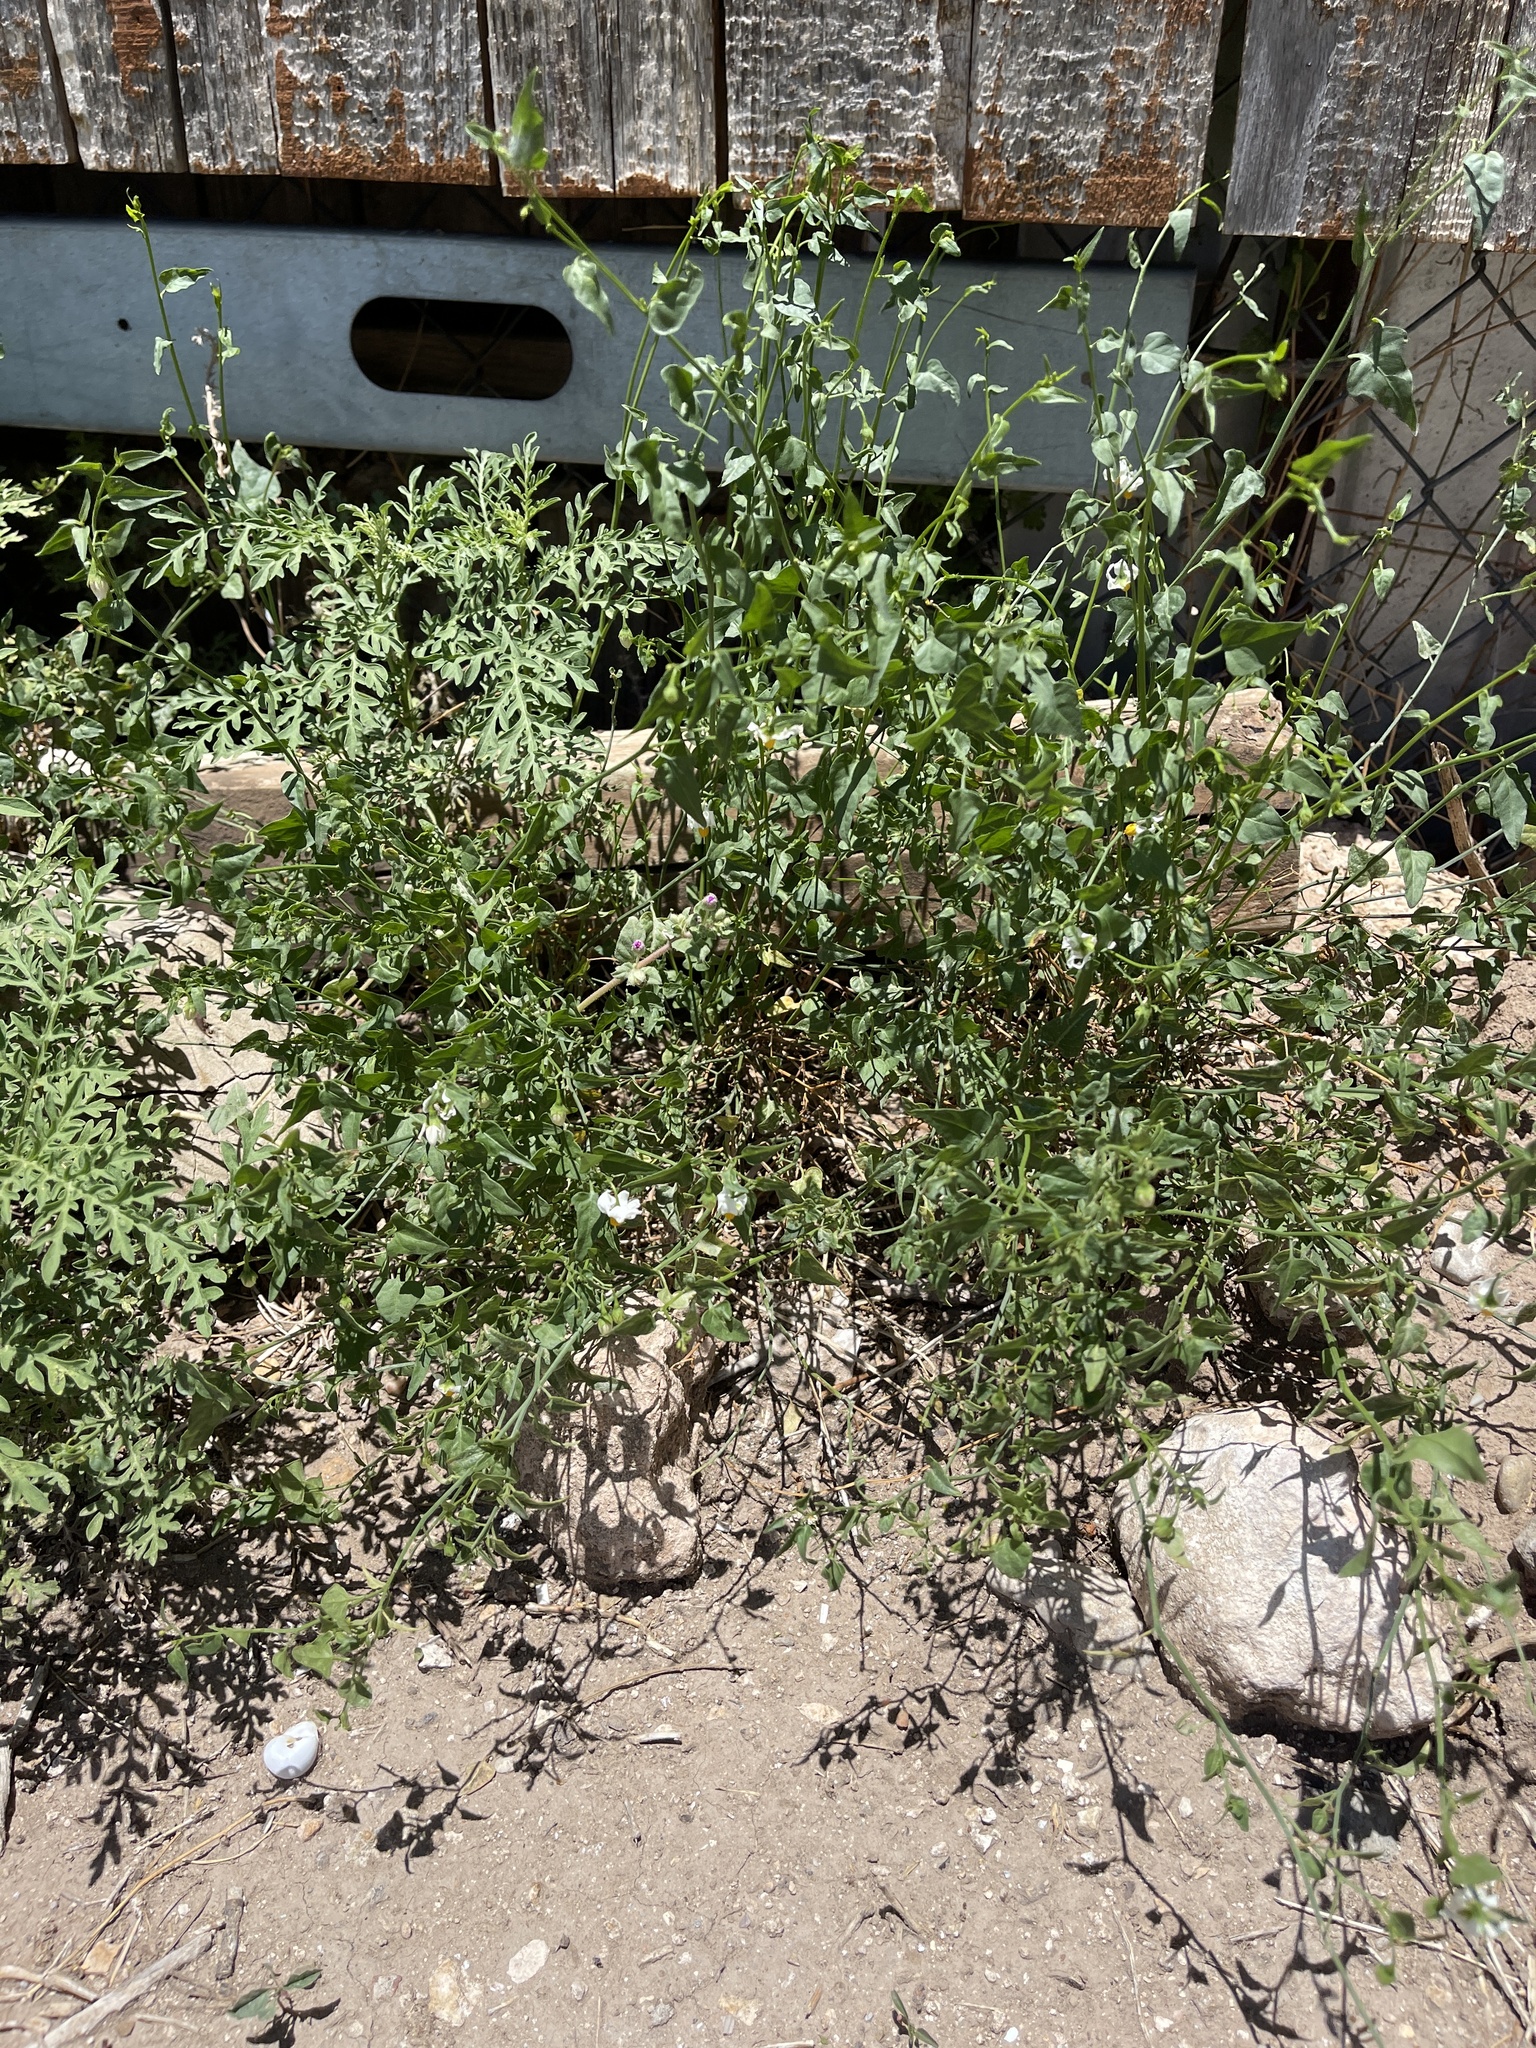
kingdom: Plantae
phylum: Tracheophyta
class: Magnoliopsida
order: Solanales
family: Solanaceae
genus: Solanum
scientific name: Solanum triquetrum
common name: Texas nightshade
